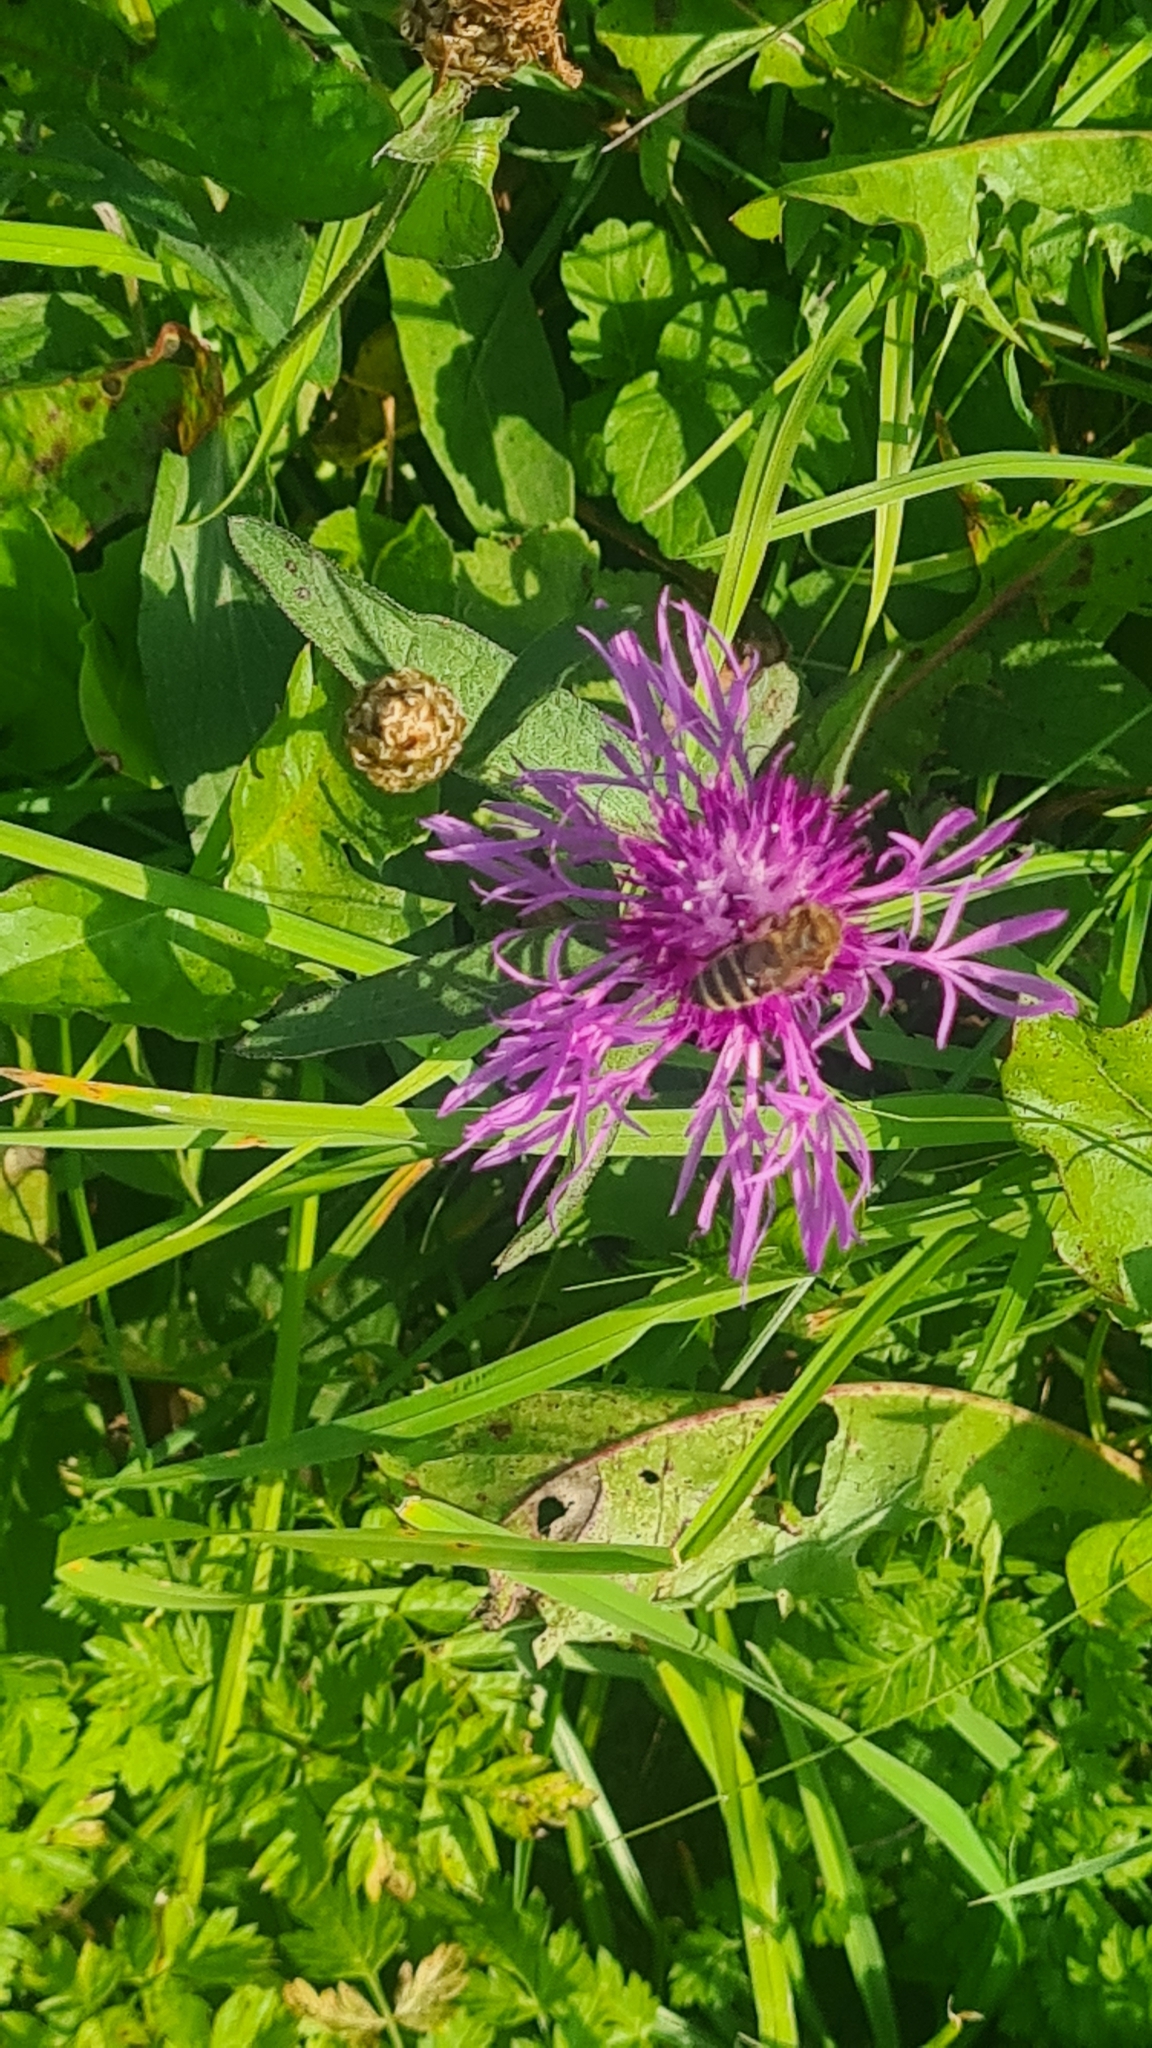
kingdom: Plantae
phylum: Tracheophyta
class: Magnoliopsida
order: Asterales
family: Asteraceae
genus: Centaurea
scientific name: Centaurea jacea
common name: Brown knapweed
